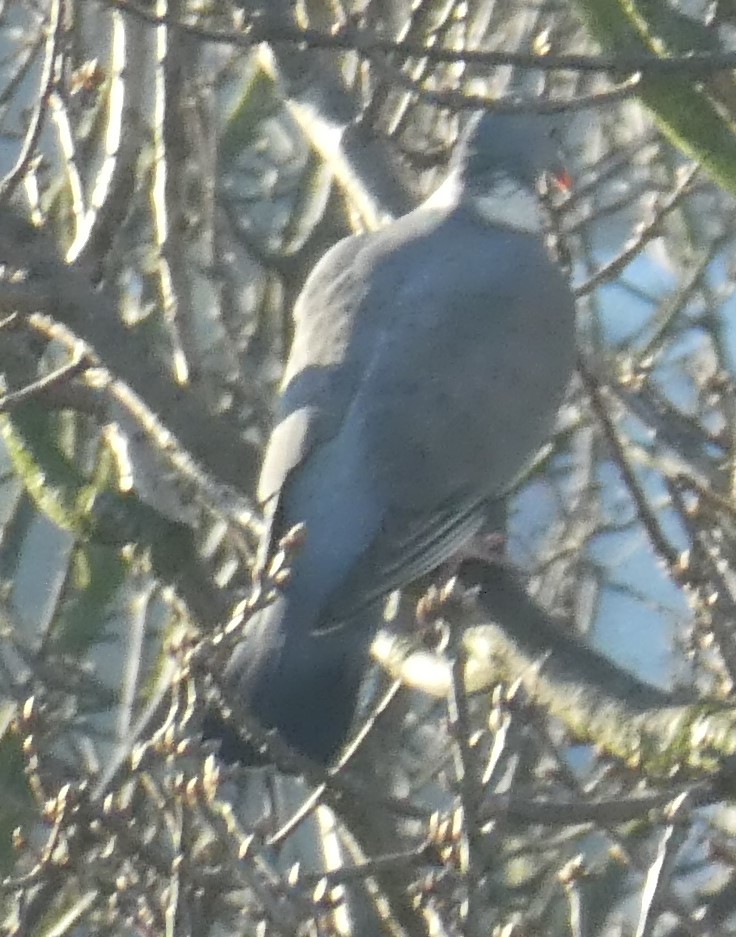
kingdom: Animalia
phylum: Chordata
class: Aves
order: Columbiformes
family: Columbidae
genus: Columba
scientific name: Columba palumbus
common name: Common wood pigeon
